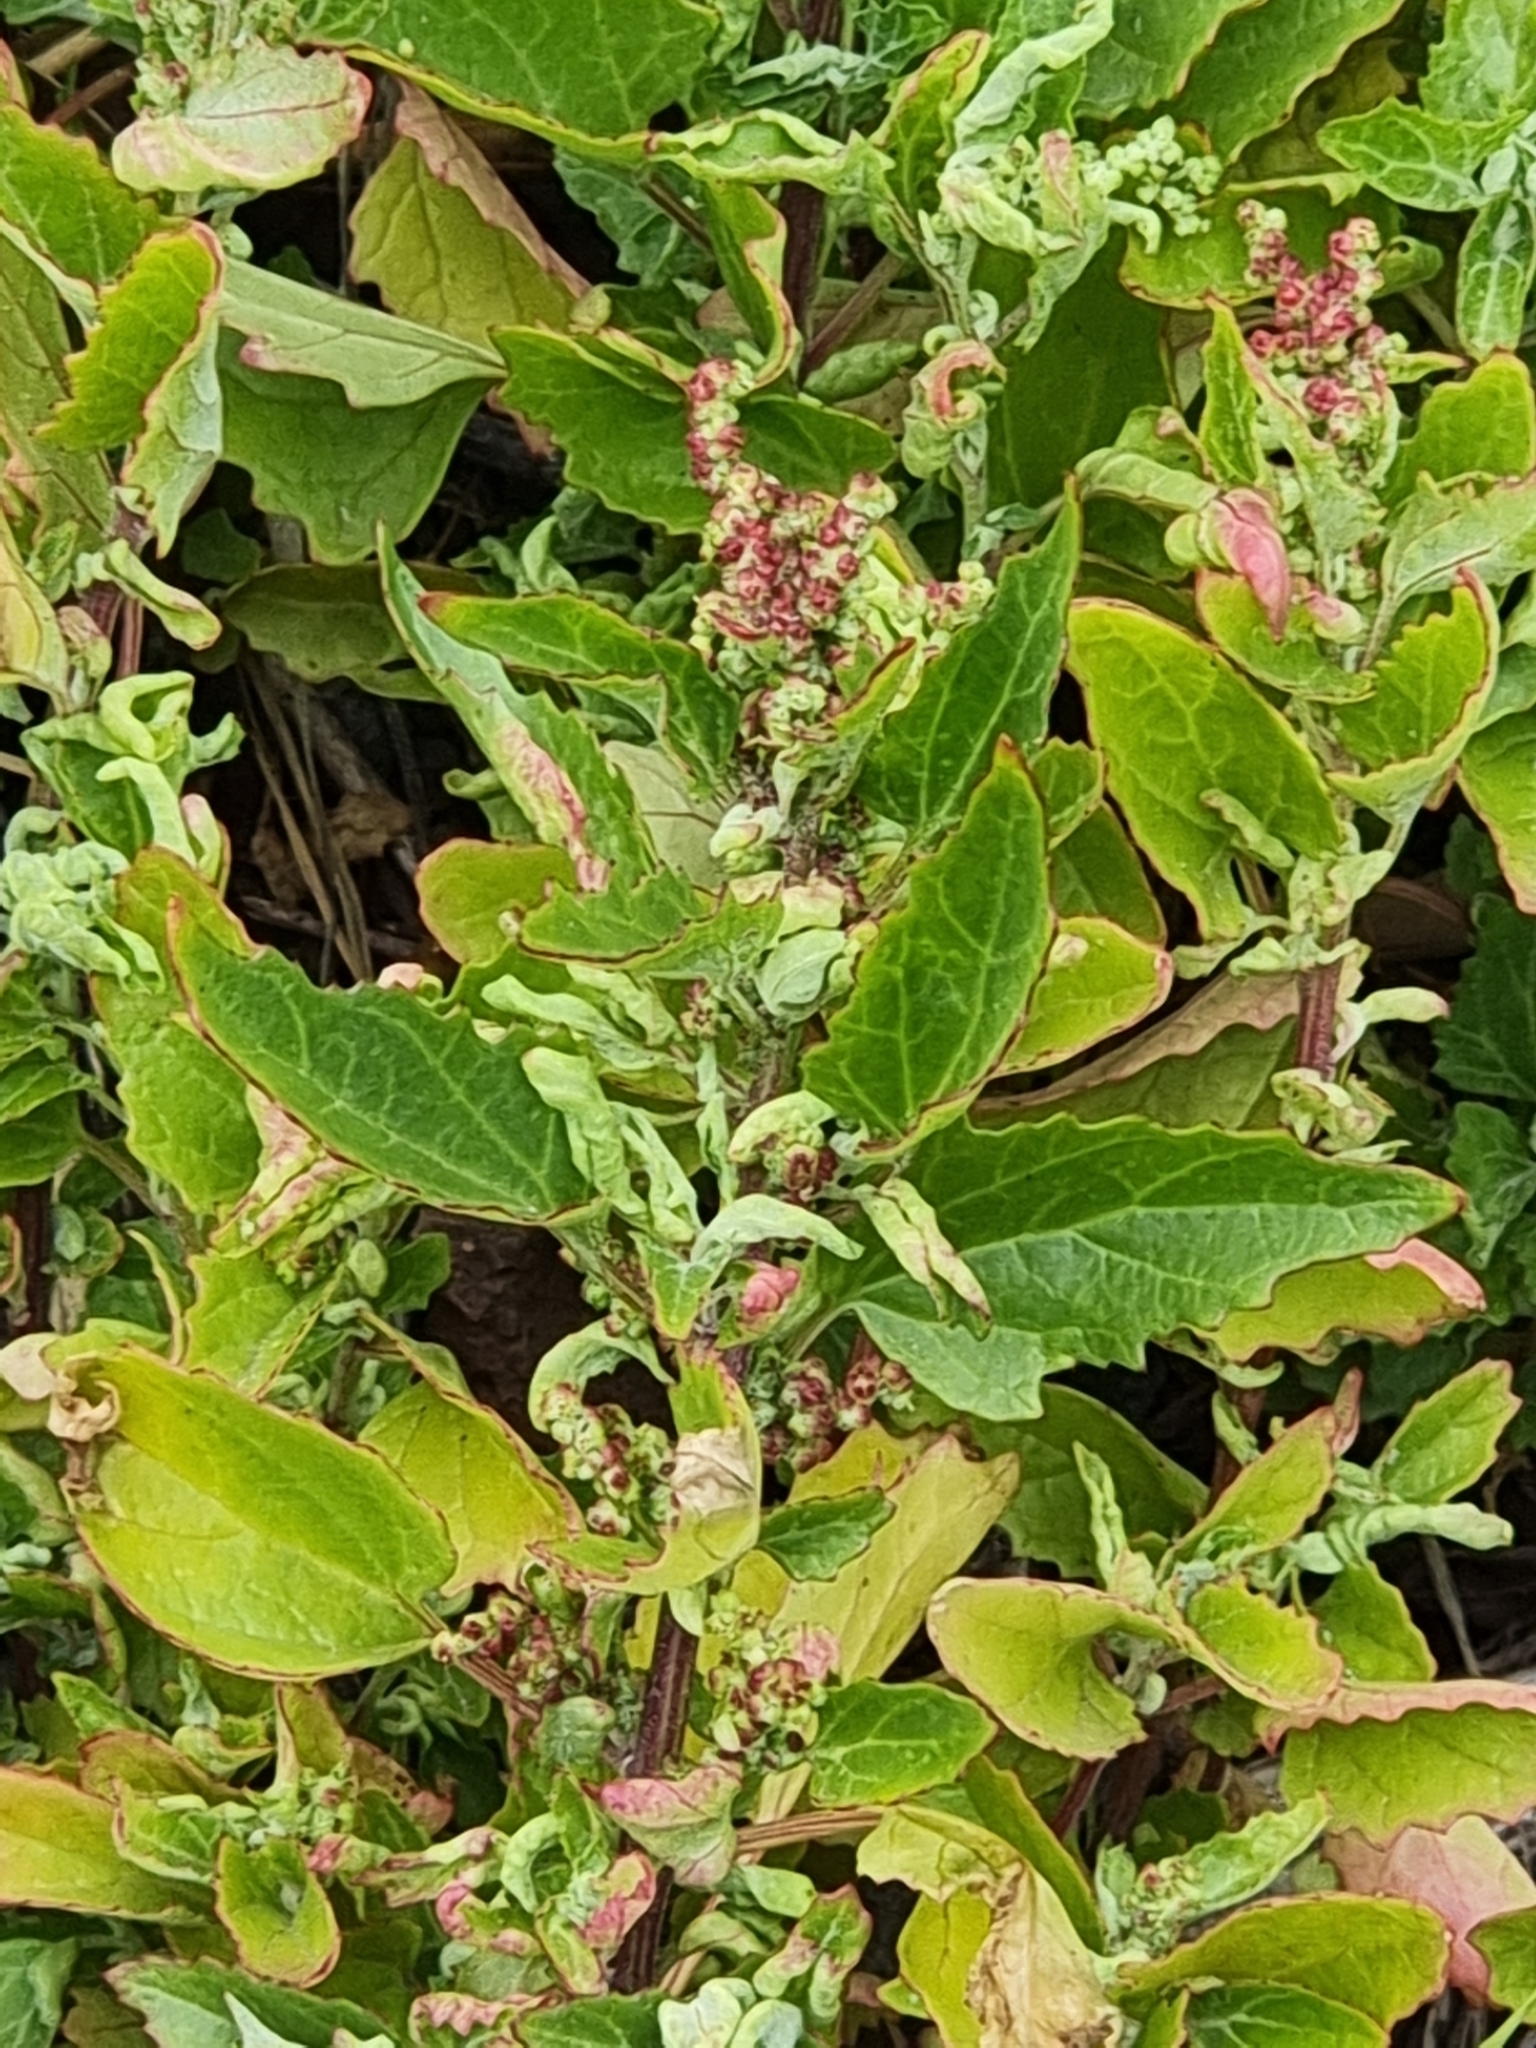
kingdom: Plantae
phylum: Tracheophyta
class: Magnoliopsida
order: Caryophyllales
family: Amaranthaceae
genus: Chenopodiastrum
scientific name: Chenopodiastrum murale
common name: Sowbane
